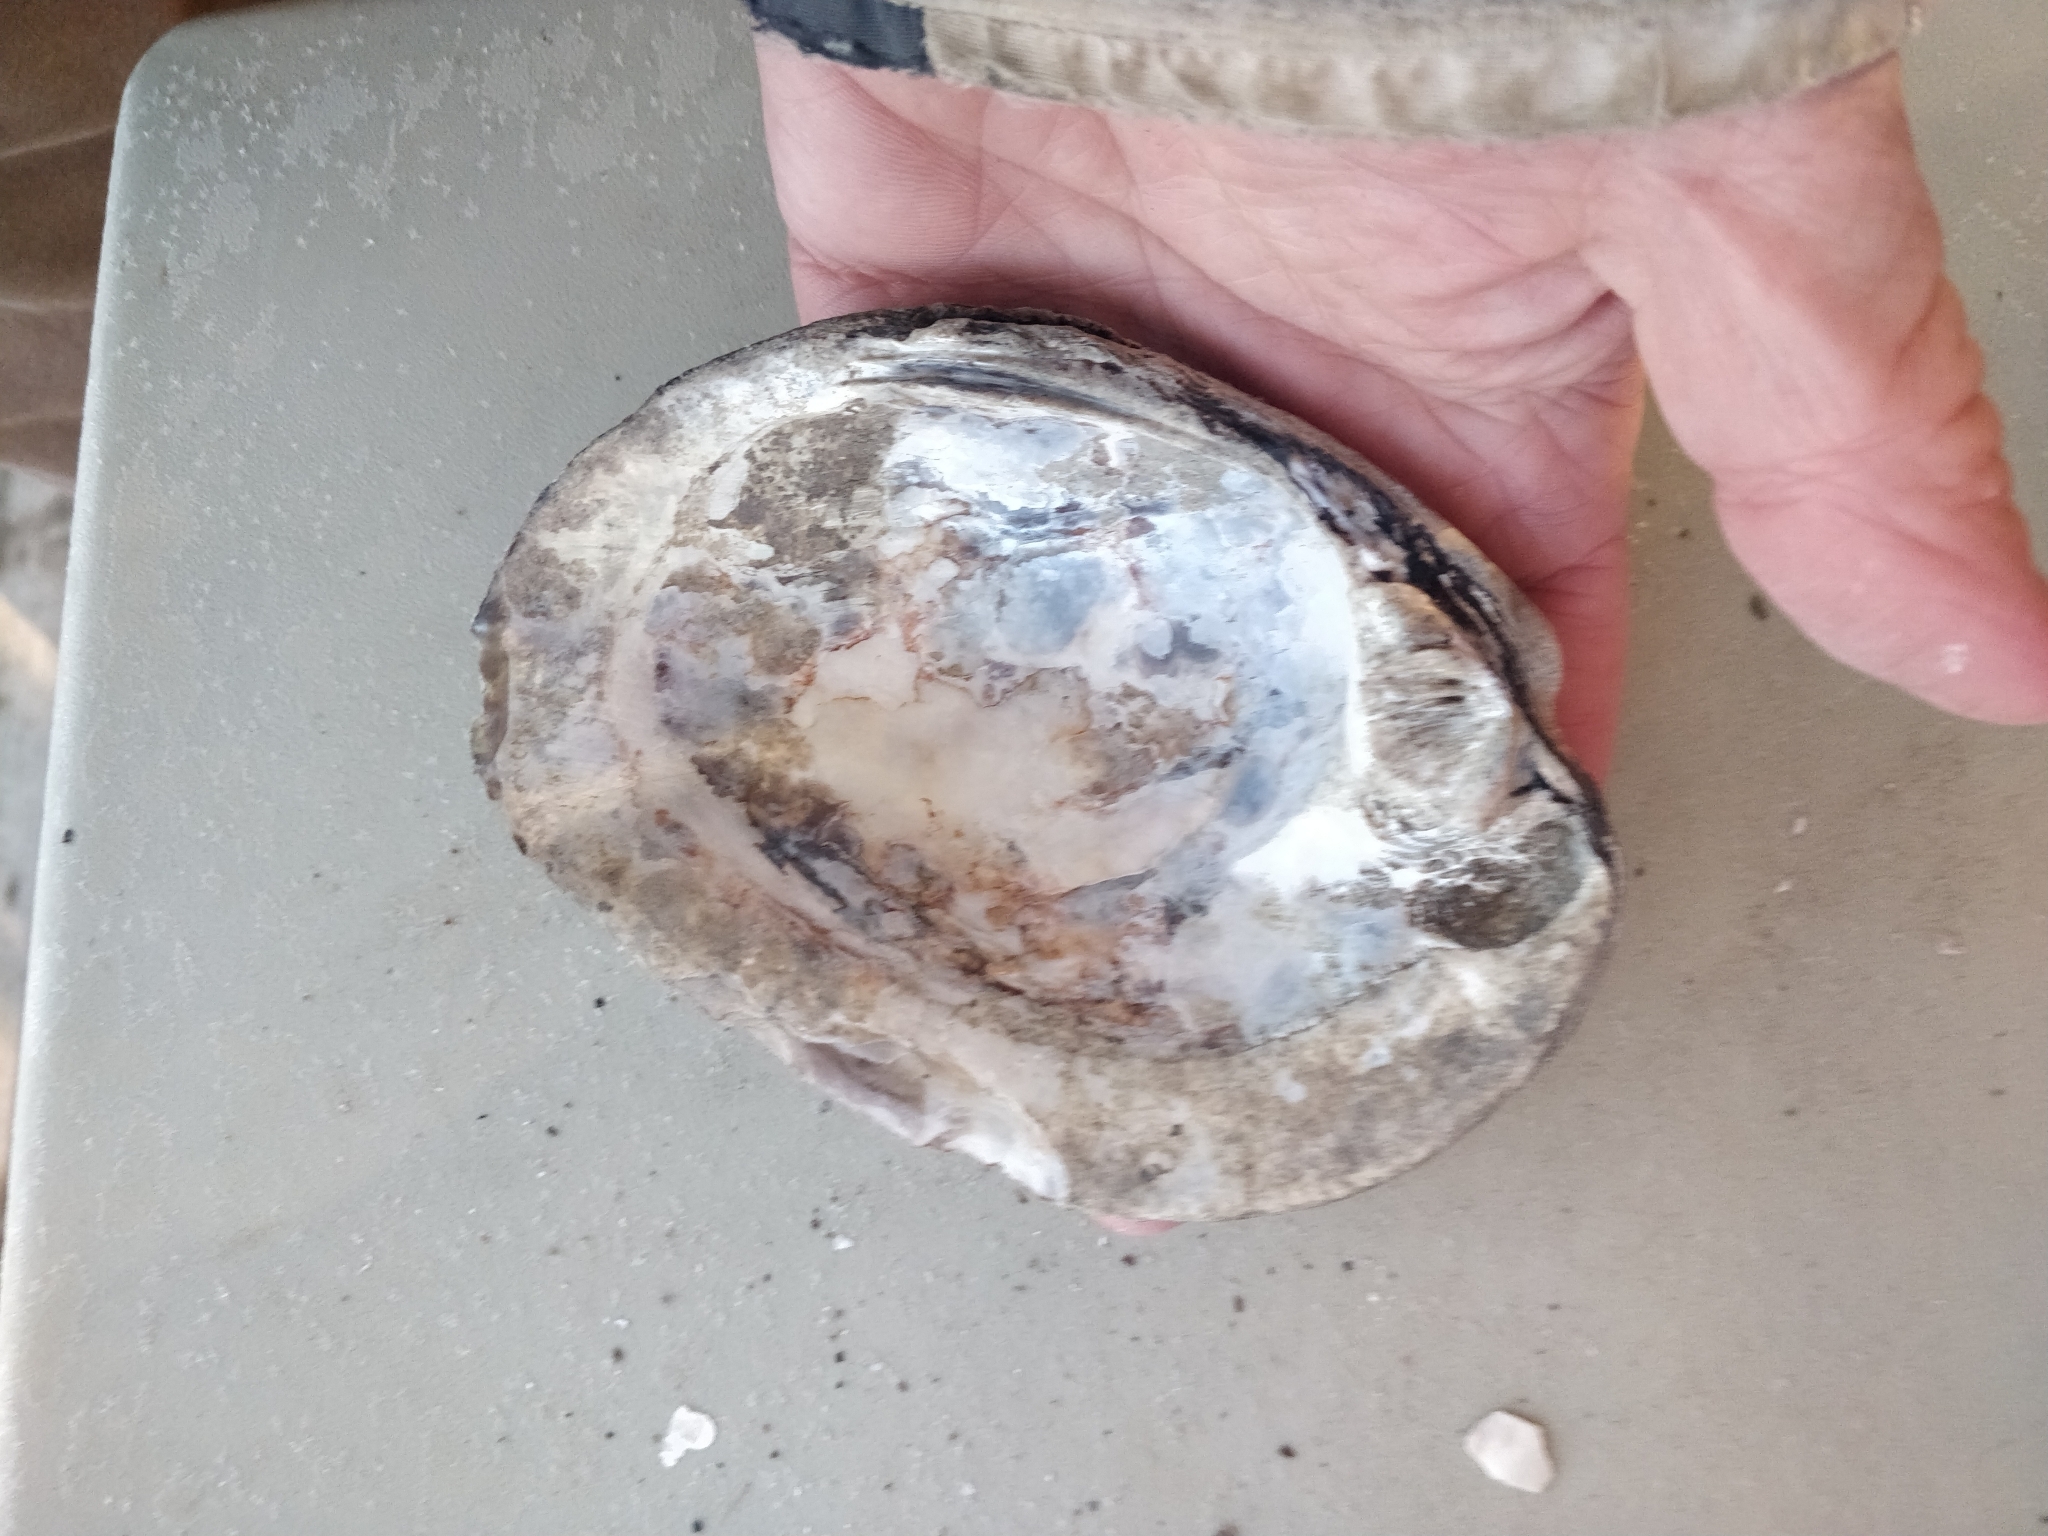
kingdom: Animalia
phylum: Mollusca
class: Bivalvia
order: Unionida
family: Unionidae
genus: Amblema
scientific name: Amblema plicata
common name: Threeridge
